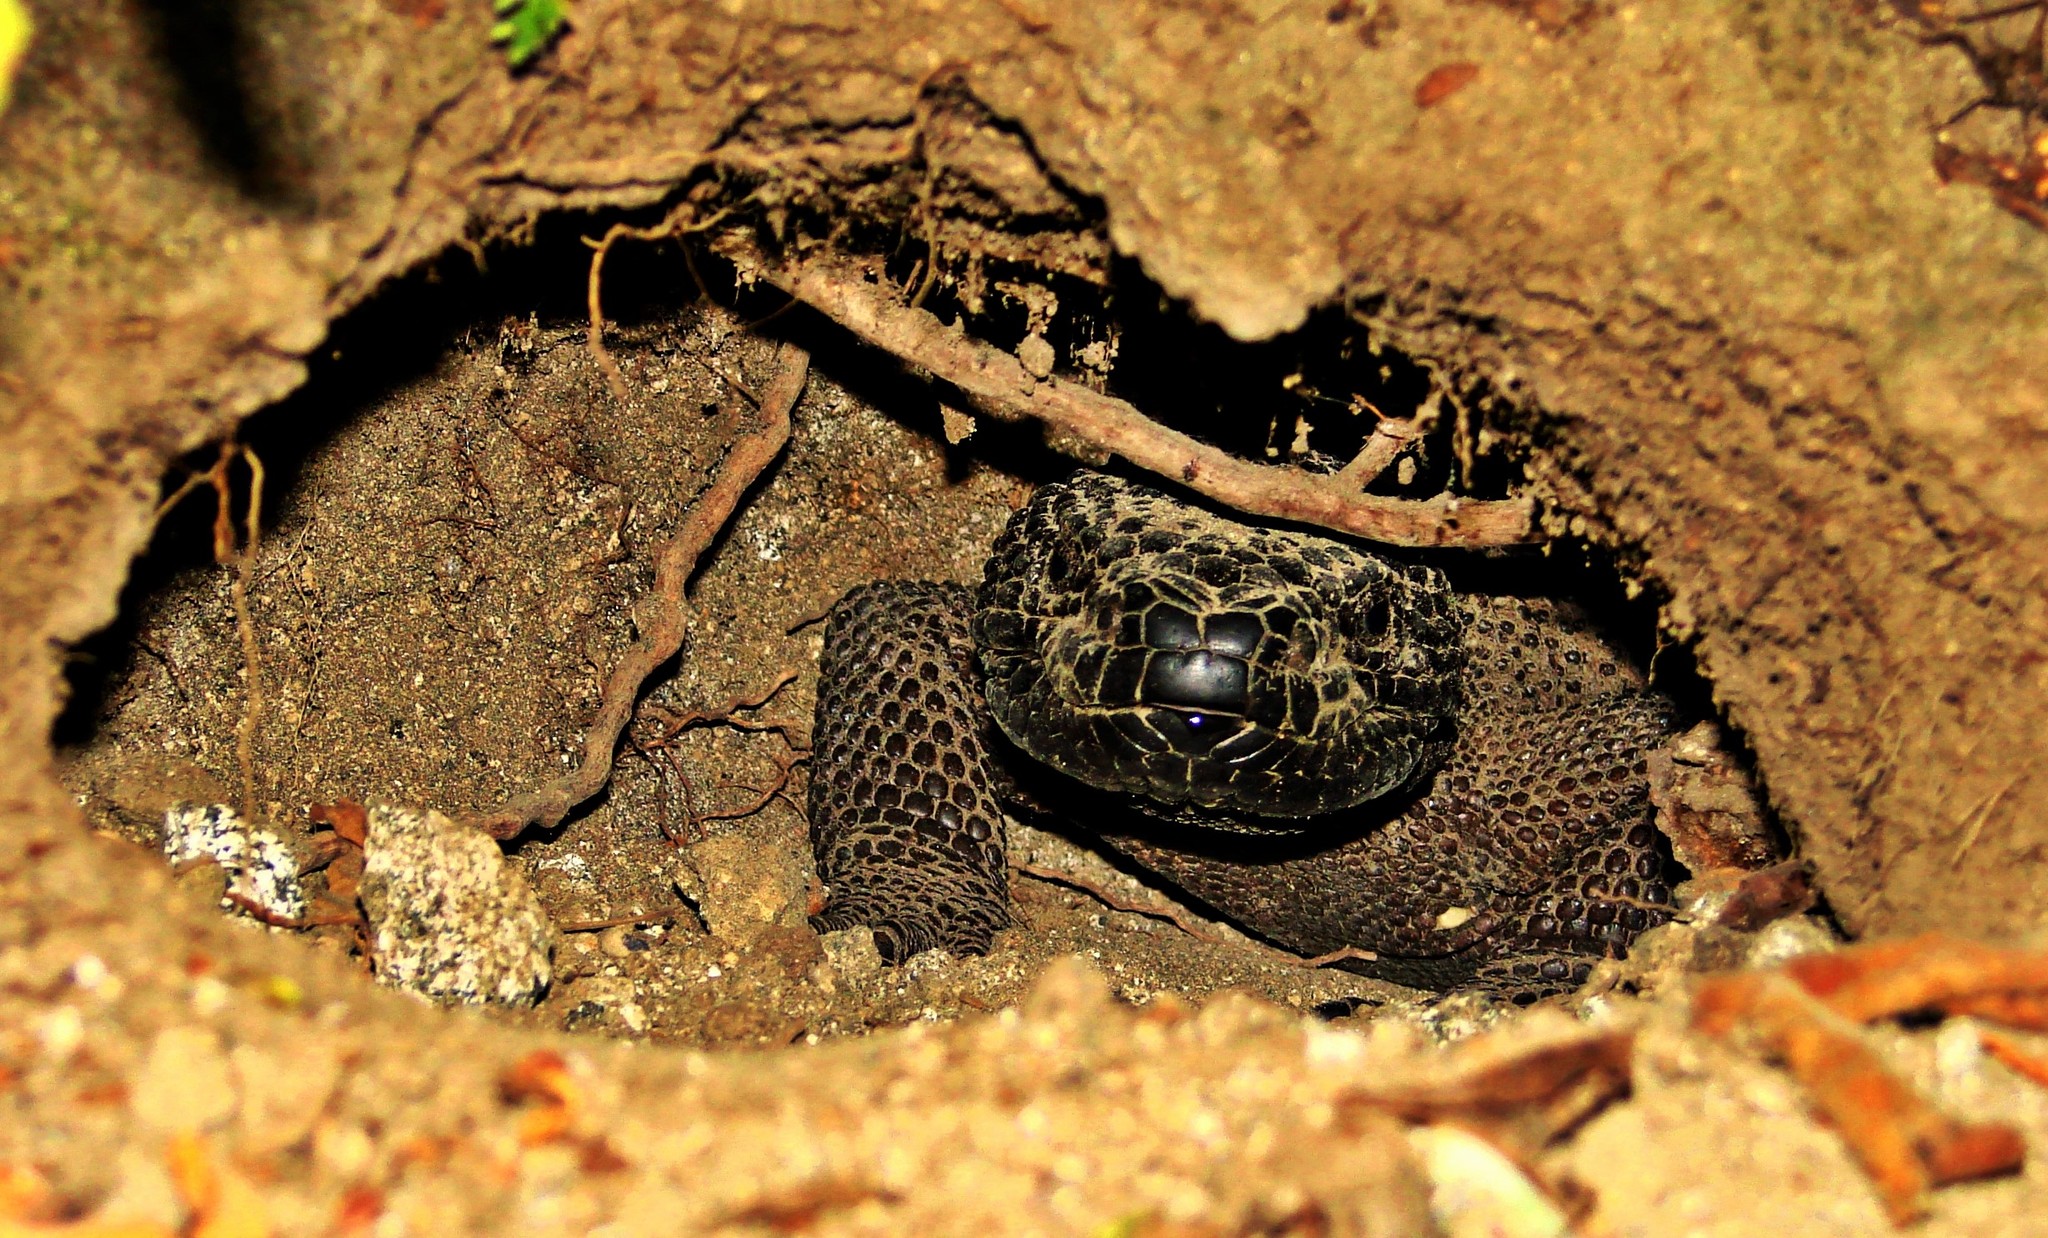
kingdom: Animalia
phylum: Chordata
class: Squamata
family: Helodermatidae
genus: Heloderma
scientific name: Heloderma charlesbogerti
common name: Guatemala beaded lizard
